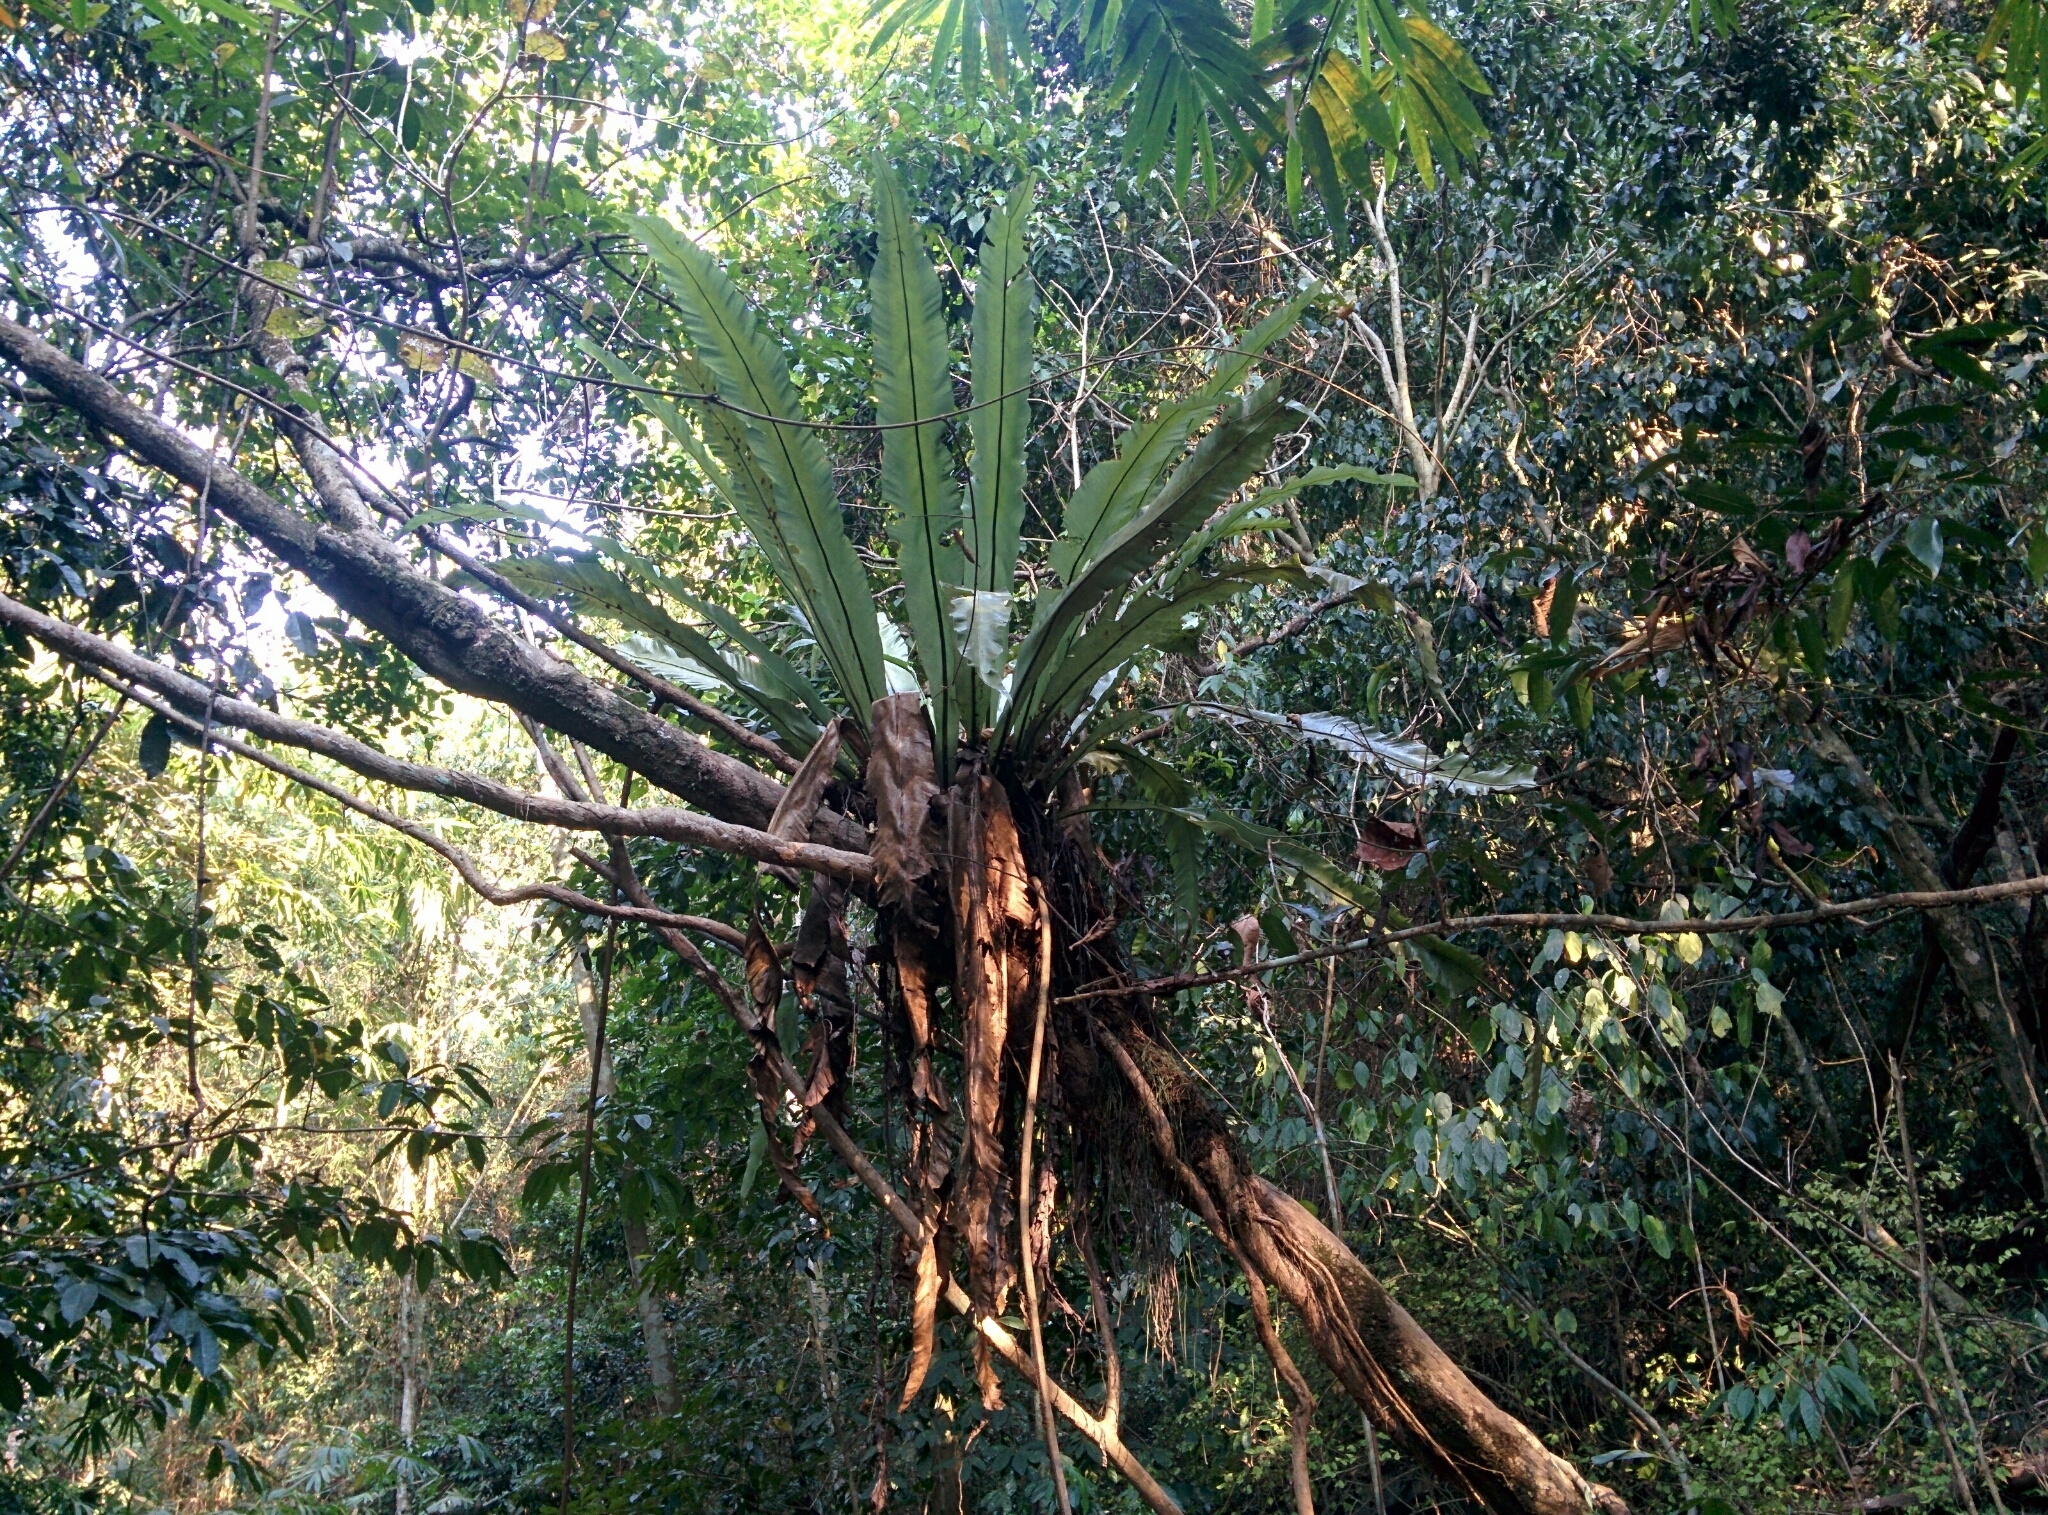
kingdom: Plantae
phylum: Tracheophyta
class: Polypodiopsida
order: Polypodiales
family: Aspleniaceae
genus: Asplenium
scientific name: Asplenium nidus
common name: Bird's-nest fern
